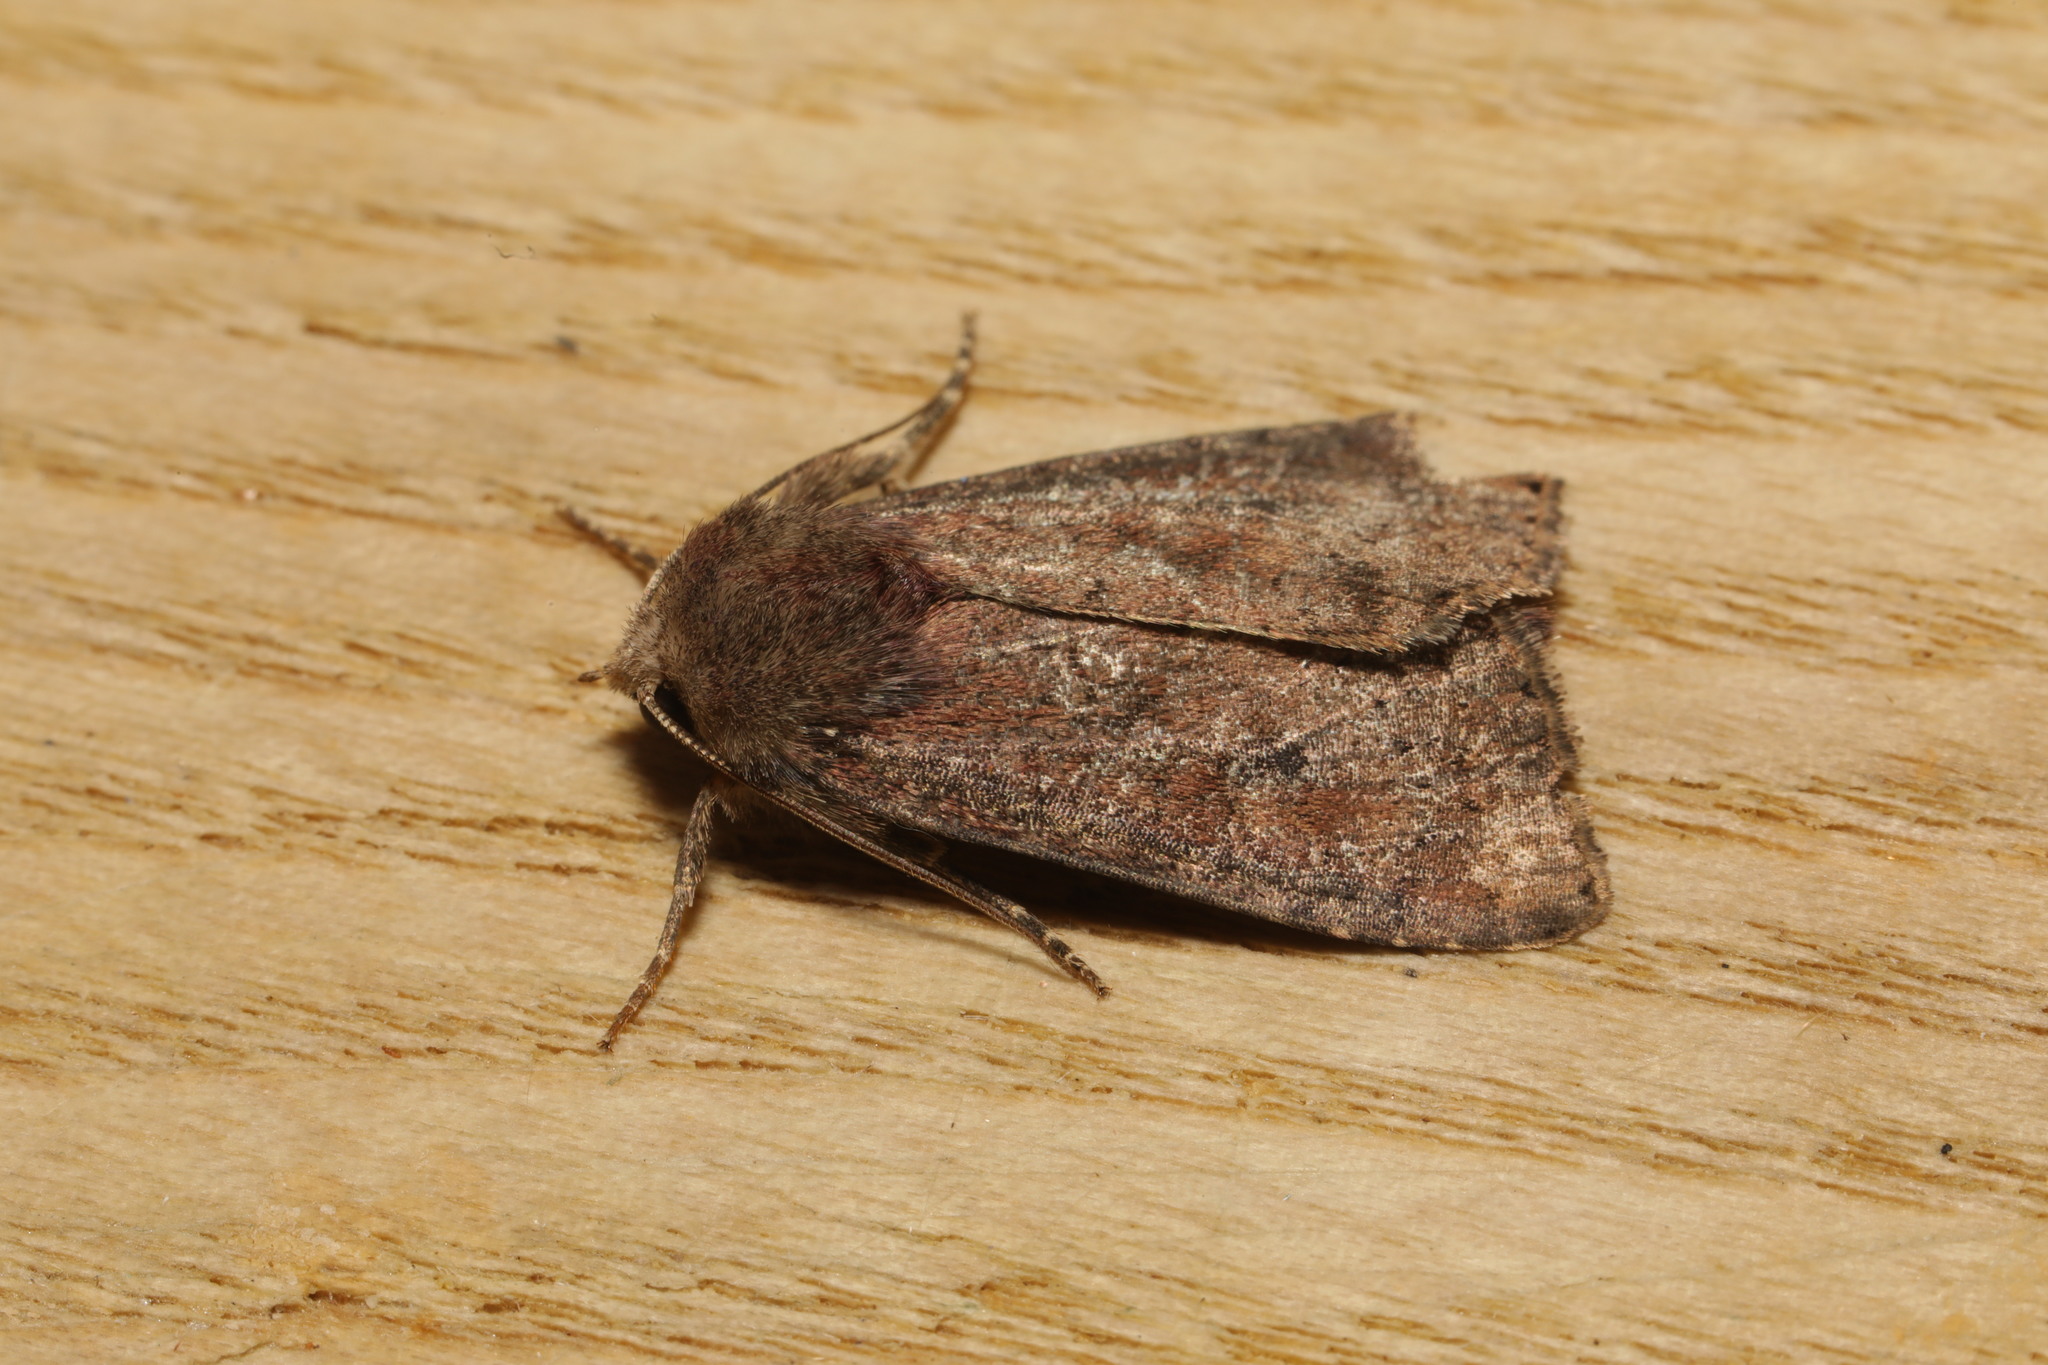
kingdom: Animalia
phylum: Arthropoda
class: Insecta
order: Lepidoptera
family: Noctuidae
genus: Mesoligia
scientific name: Mesoligia furuncula
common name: Cloaked minor
